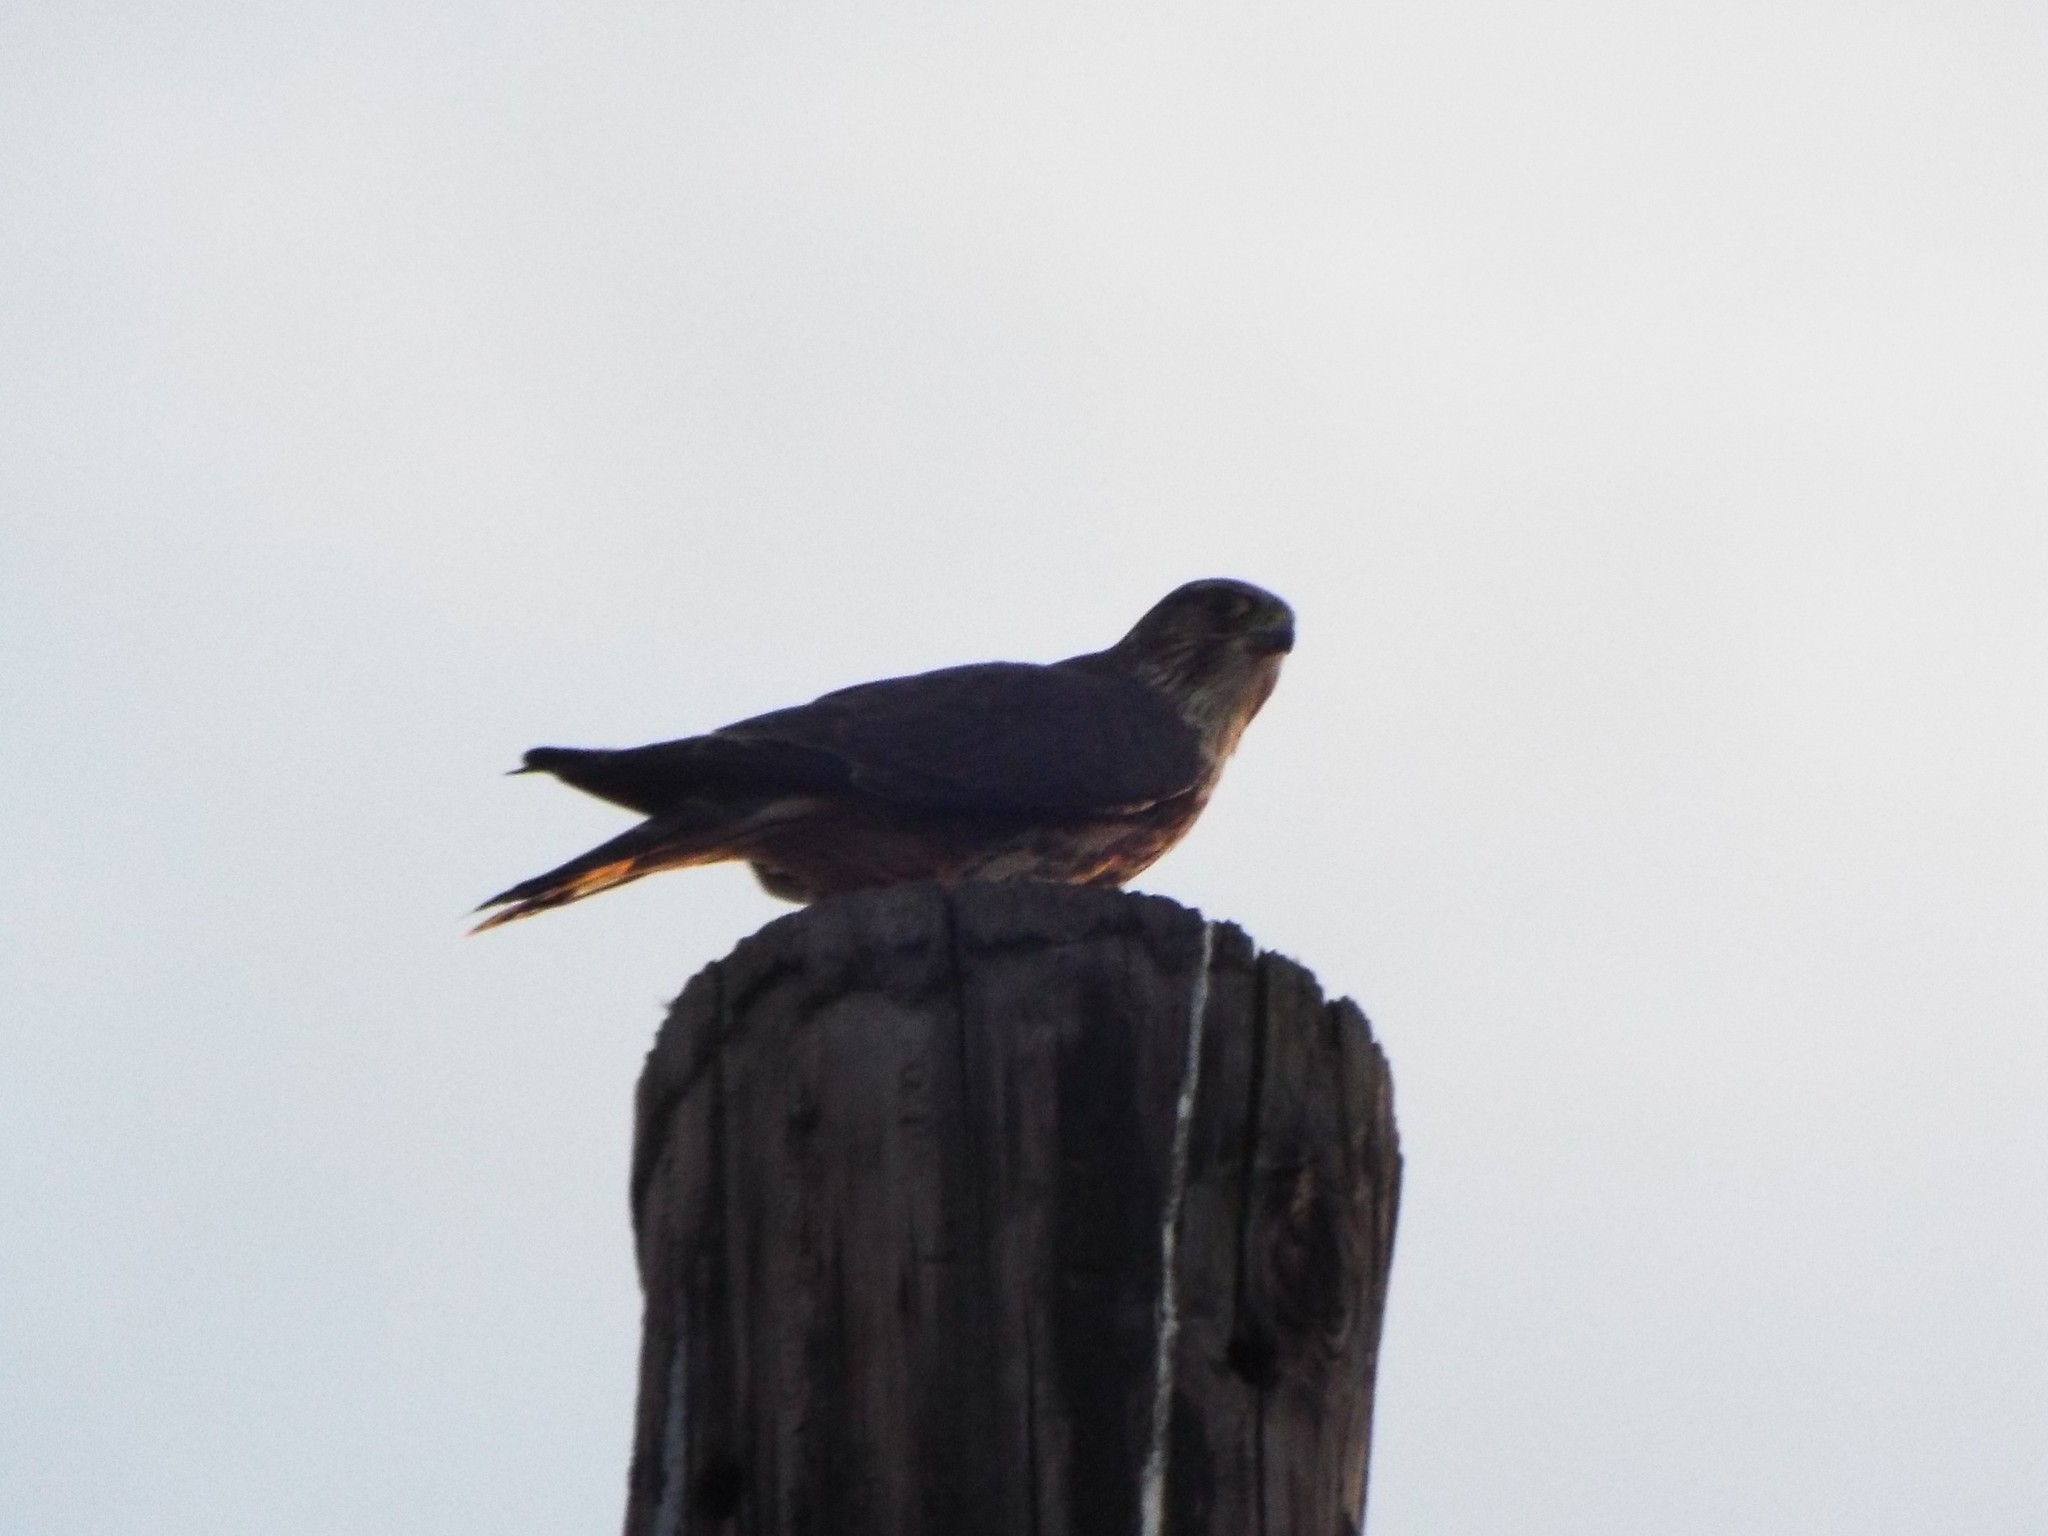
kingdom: Animalia
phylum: Chordata
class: Aves
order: Falconiformes
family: Falconidae
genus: Falco
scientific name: Falco columbarius
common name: Merlin
